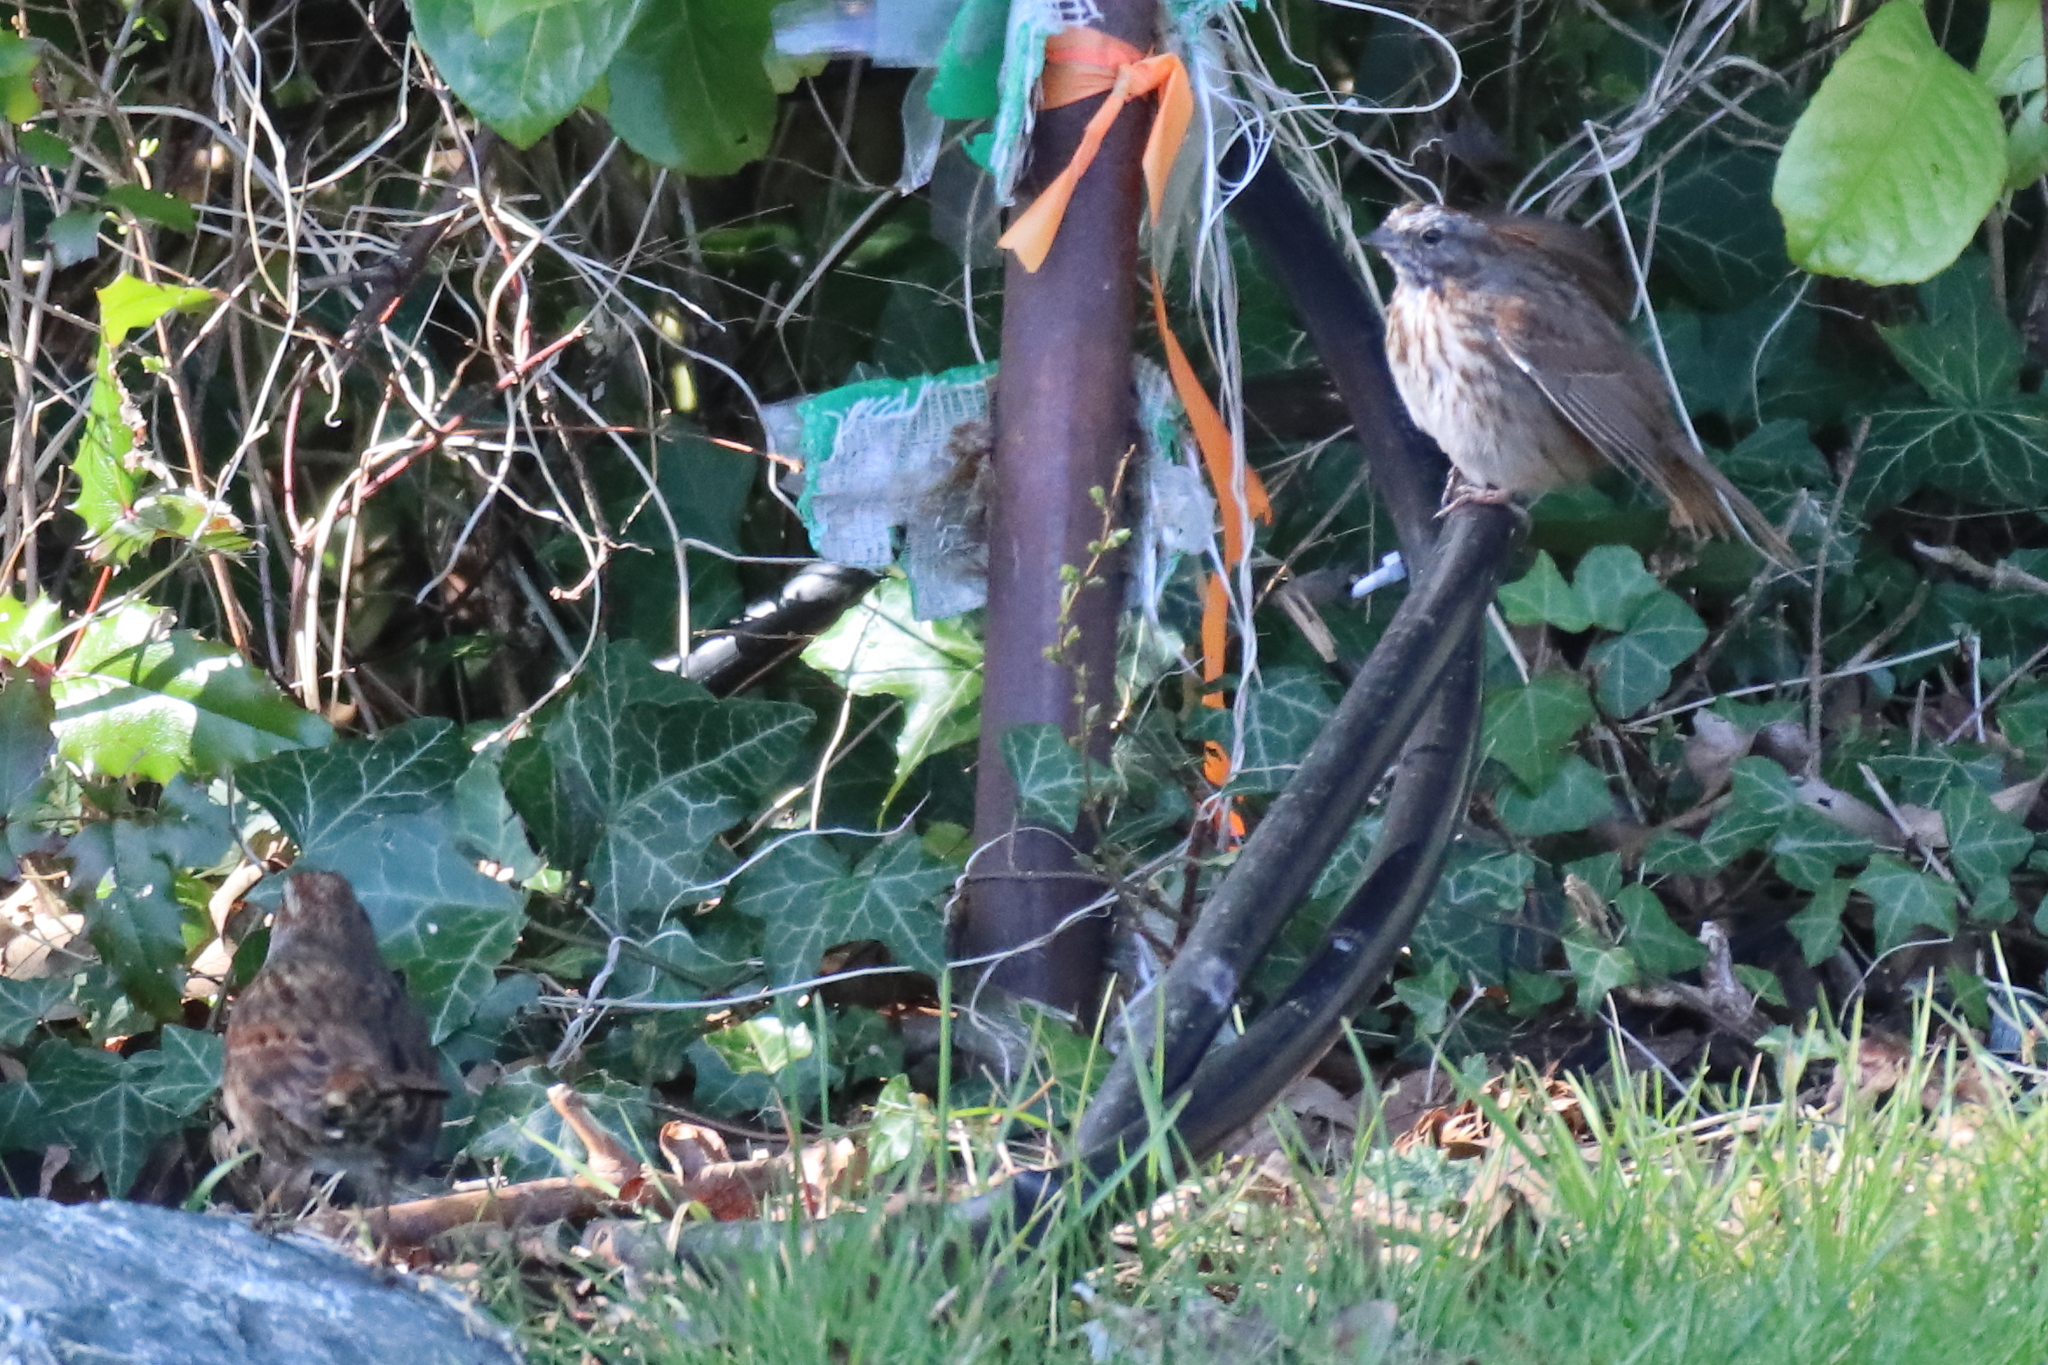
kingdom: Animalia
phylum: Chordata
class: Aves
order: Passeriformes
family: Passerellidae
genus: Melospiza
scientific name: Melospiza melodia
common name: Song sparrow
